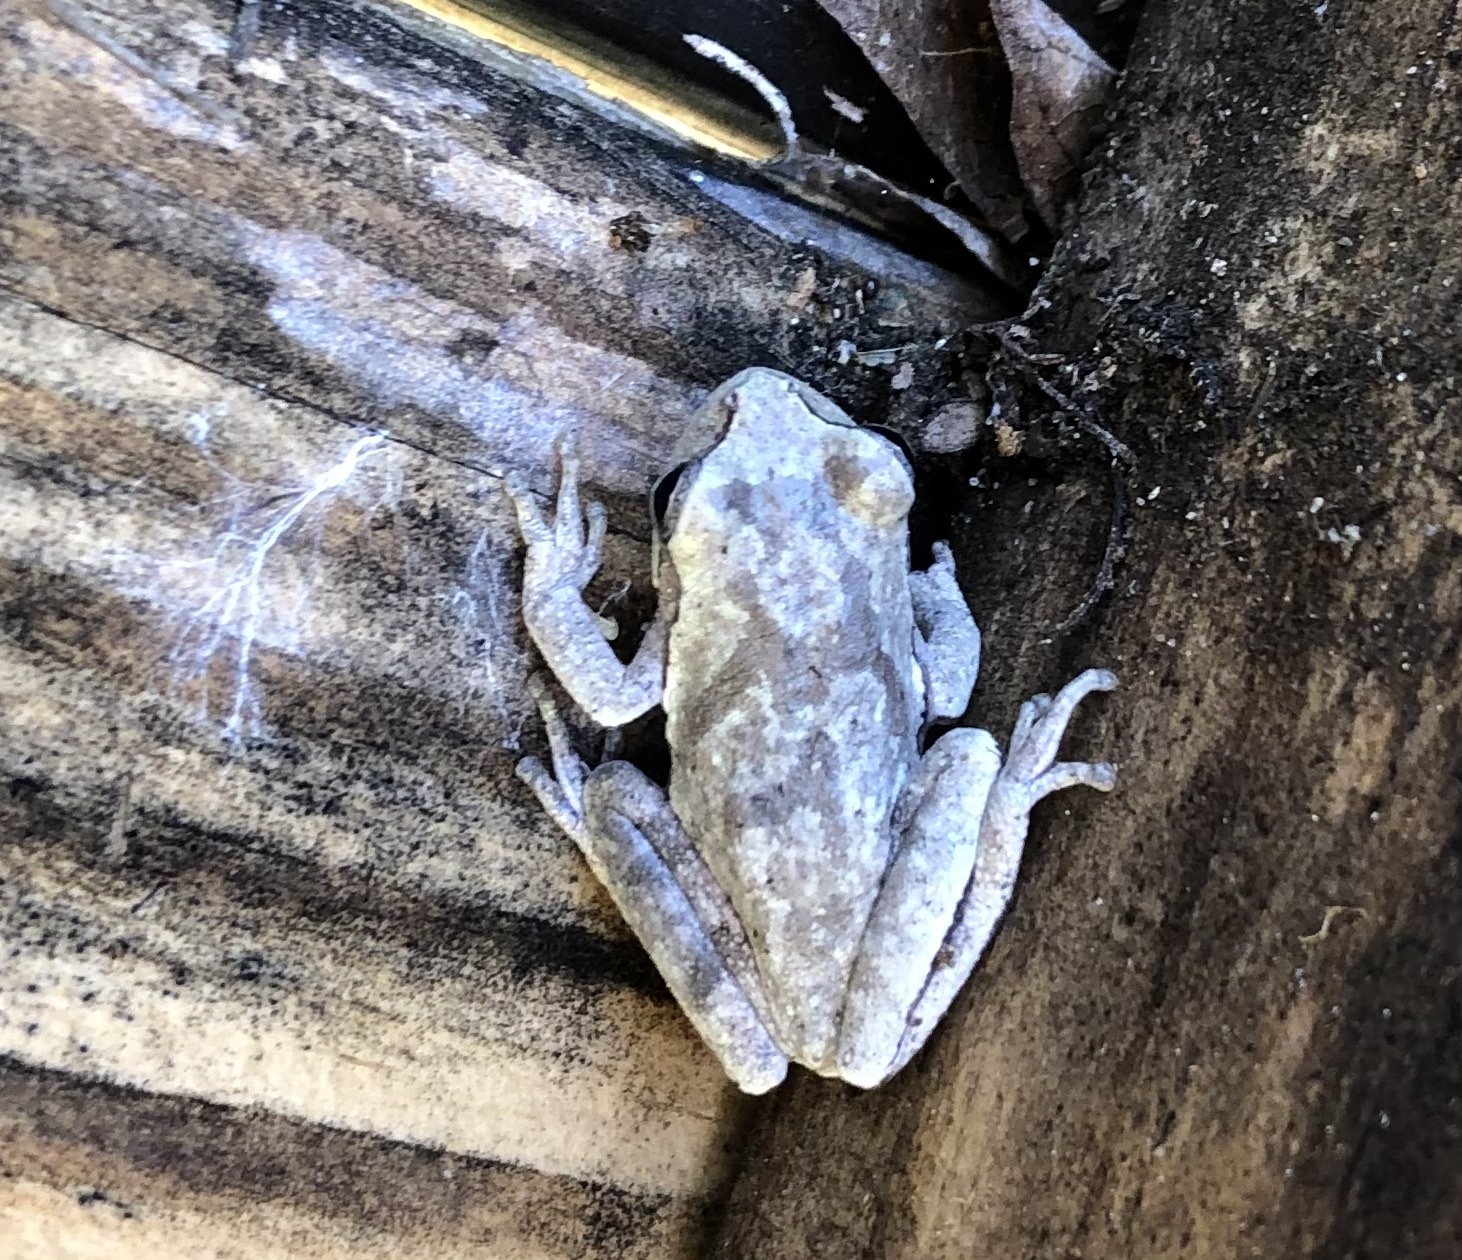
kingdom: Animalia
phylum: Chordata
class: Amphibia
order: Anura
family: Hylidae
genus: Hyla
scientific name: Hyla femoralis
